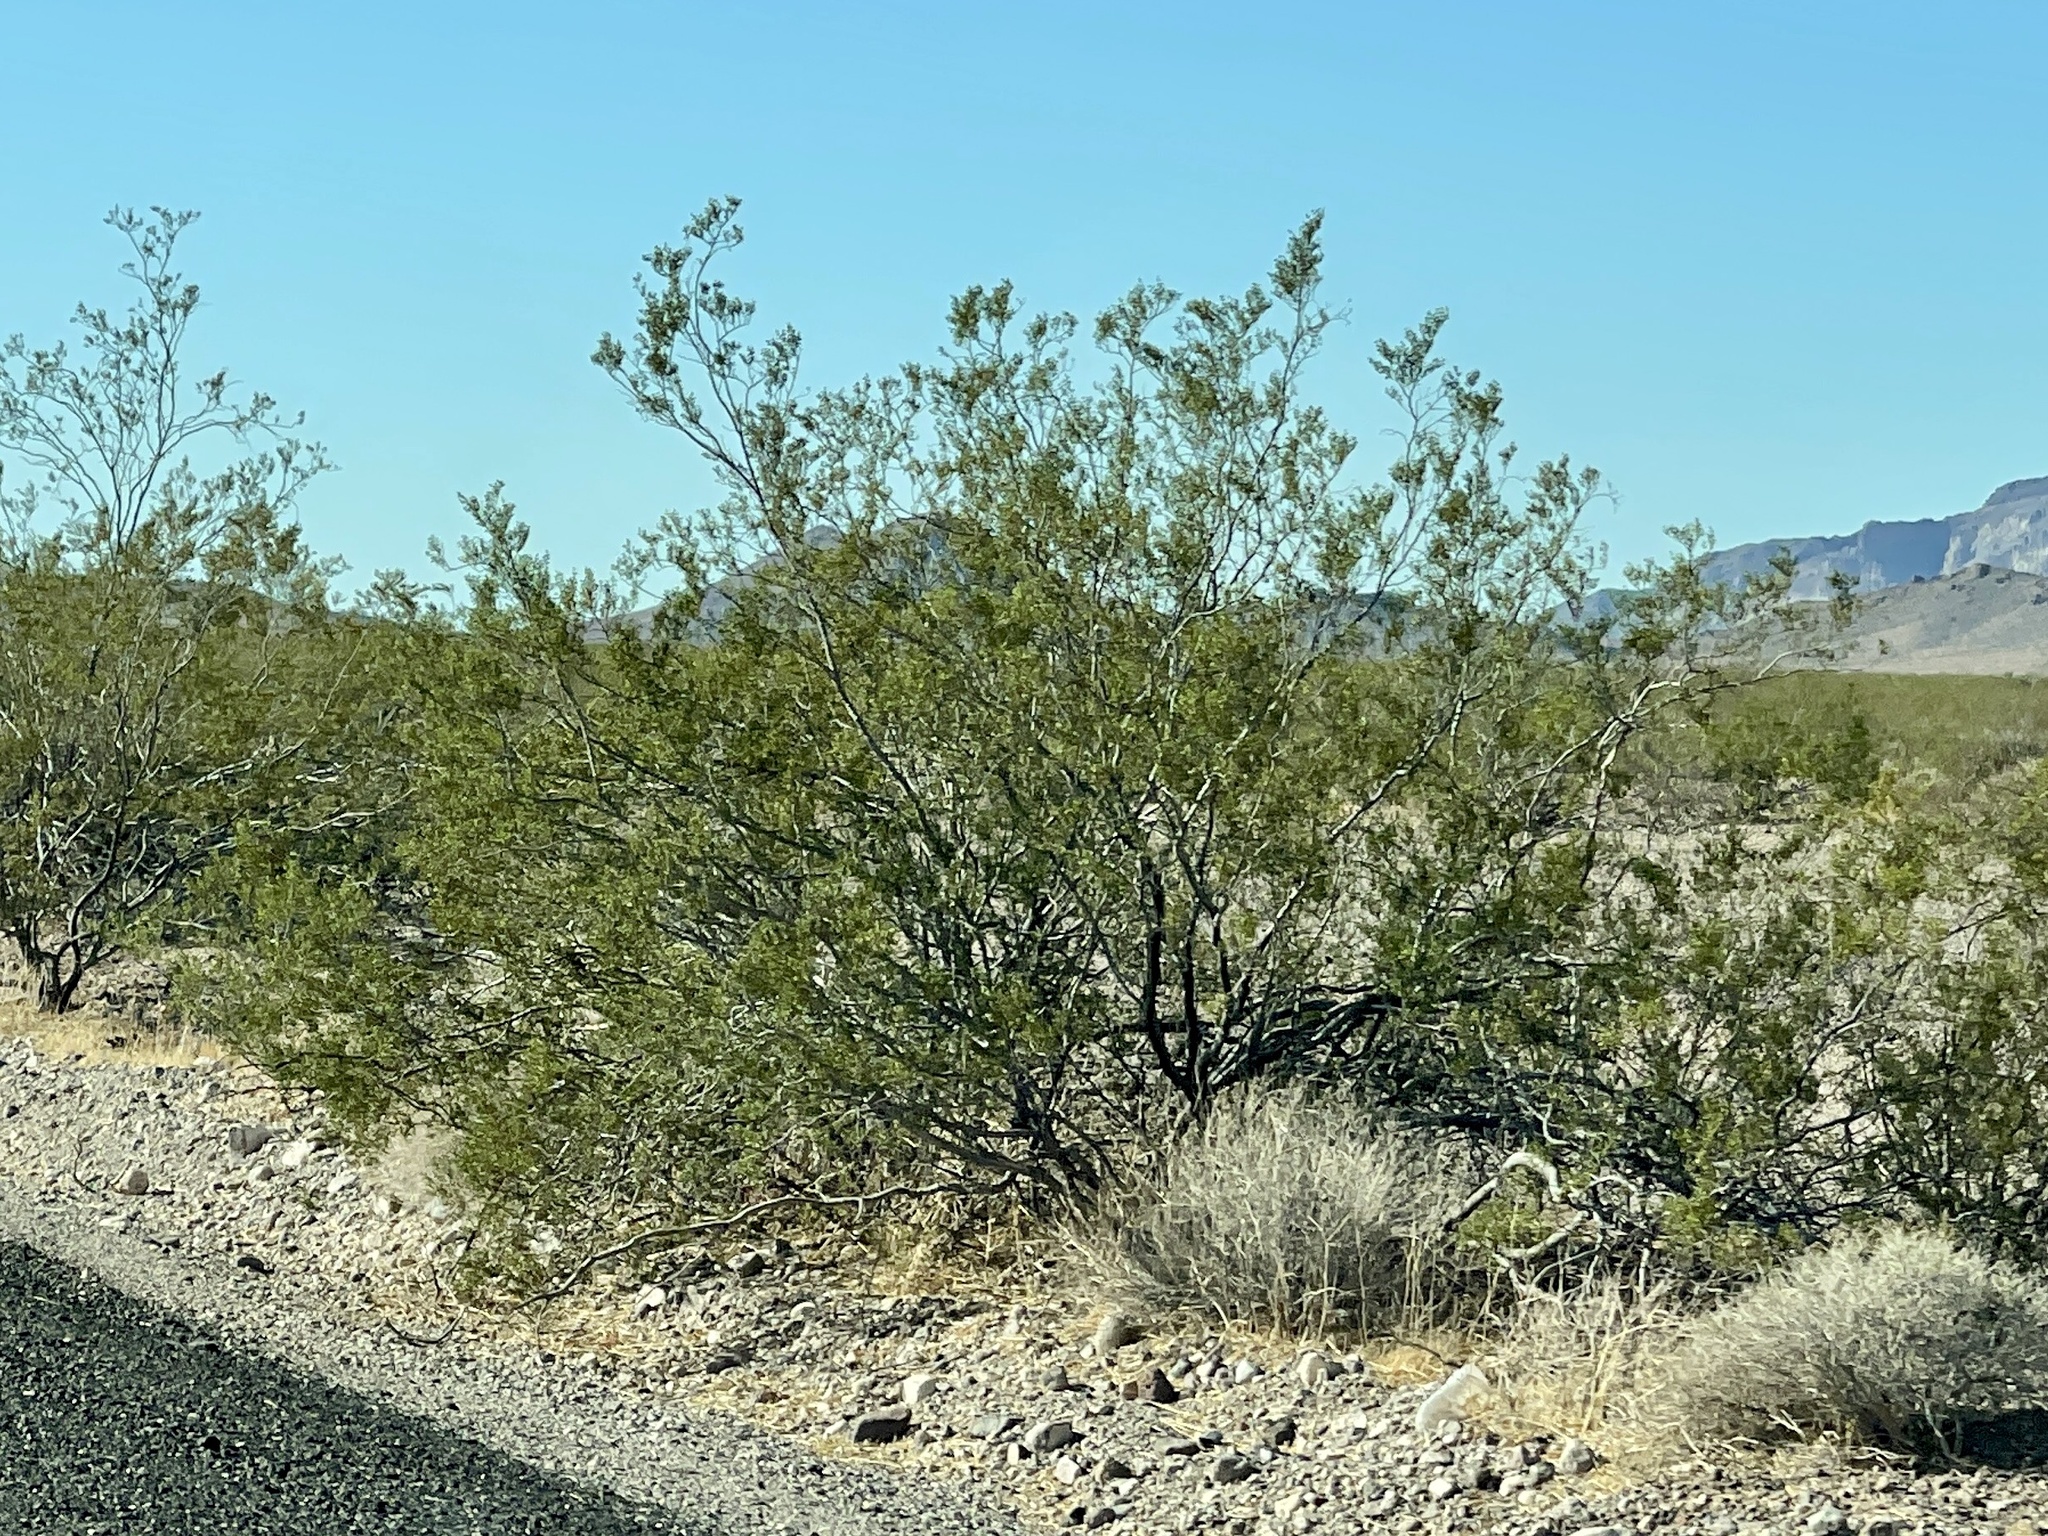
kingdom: Plantae
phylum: Tracheophyta
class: Magnoliopsida
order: Zygophyllales
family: Zygophyllaceae
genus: Larrea
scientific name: Larrea tridentata
